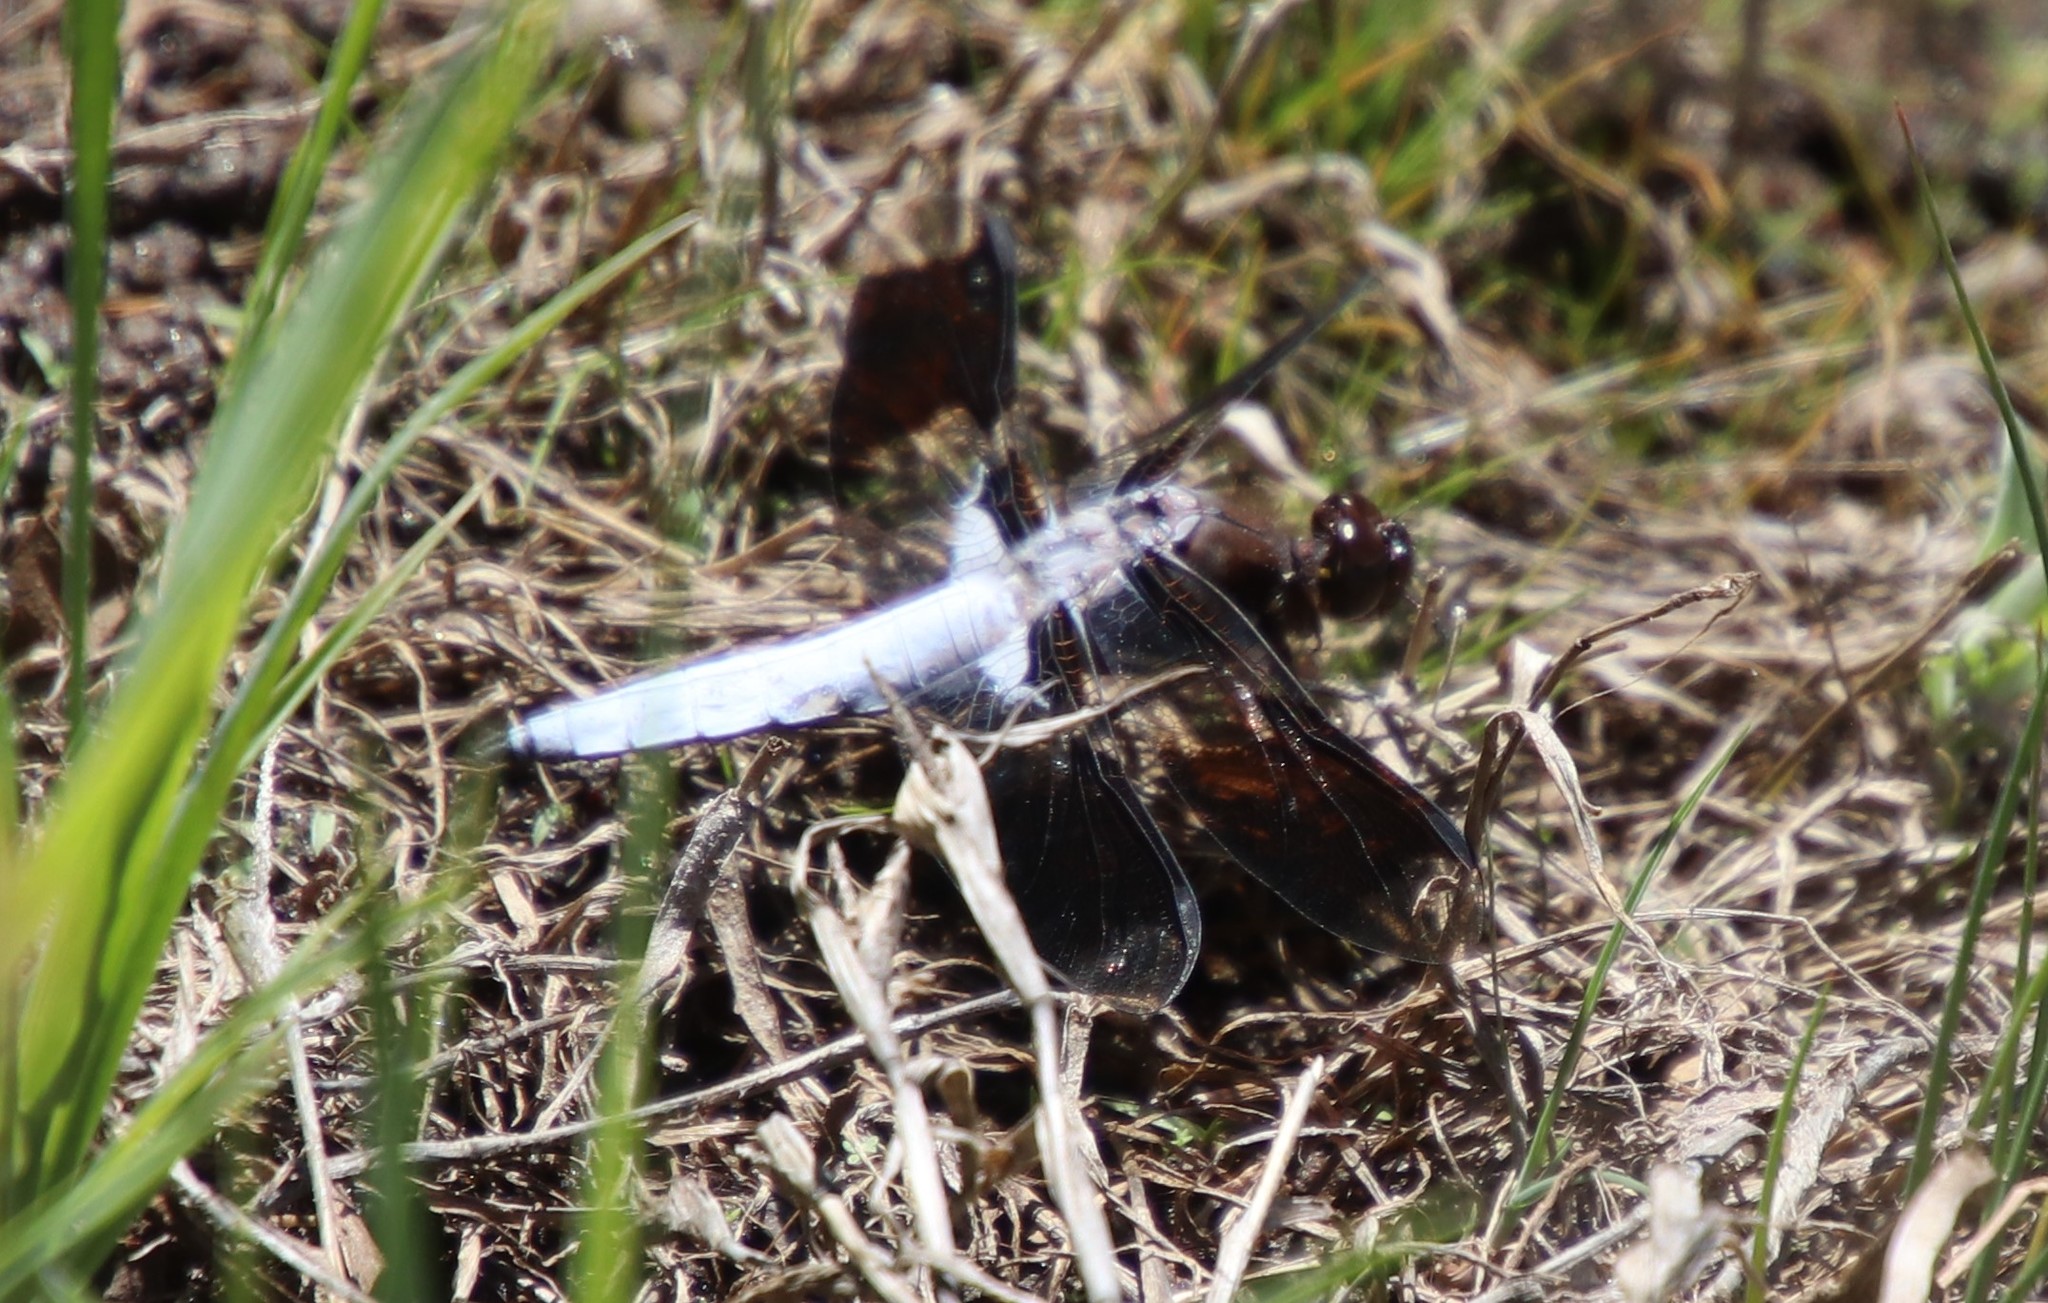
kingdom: Animalia
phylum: Arthropoda
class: Insecta
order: Odonata
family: Libellulidae
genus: Plathemis
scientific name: Plathemis lydia
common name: Common whitetail
